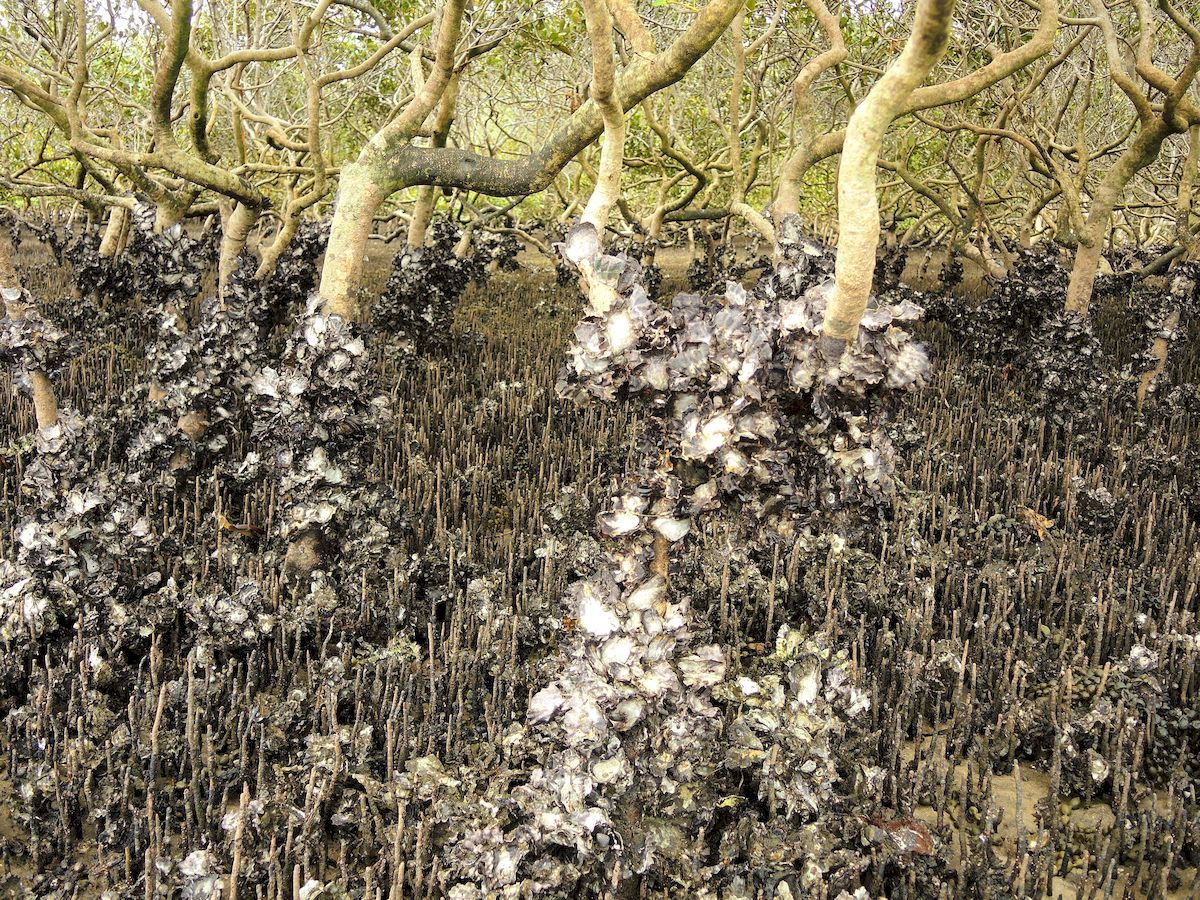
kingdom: Animalia
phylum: Mollusca
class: Bivalvia
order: Ostreida
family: Ostreidae
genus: Saccostrea
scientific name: Saccostrea glomerata
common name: Sydney cupped oyster
